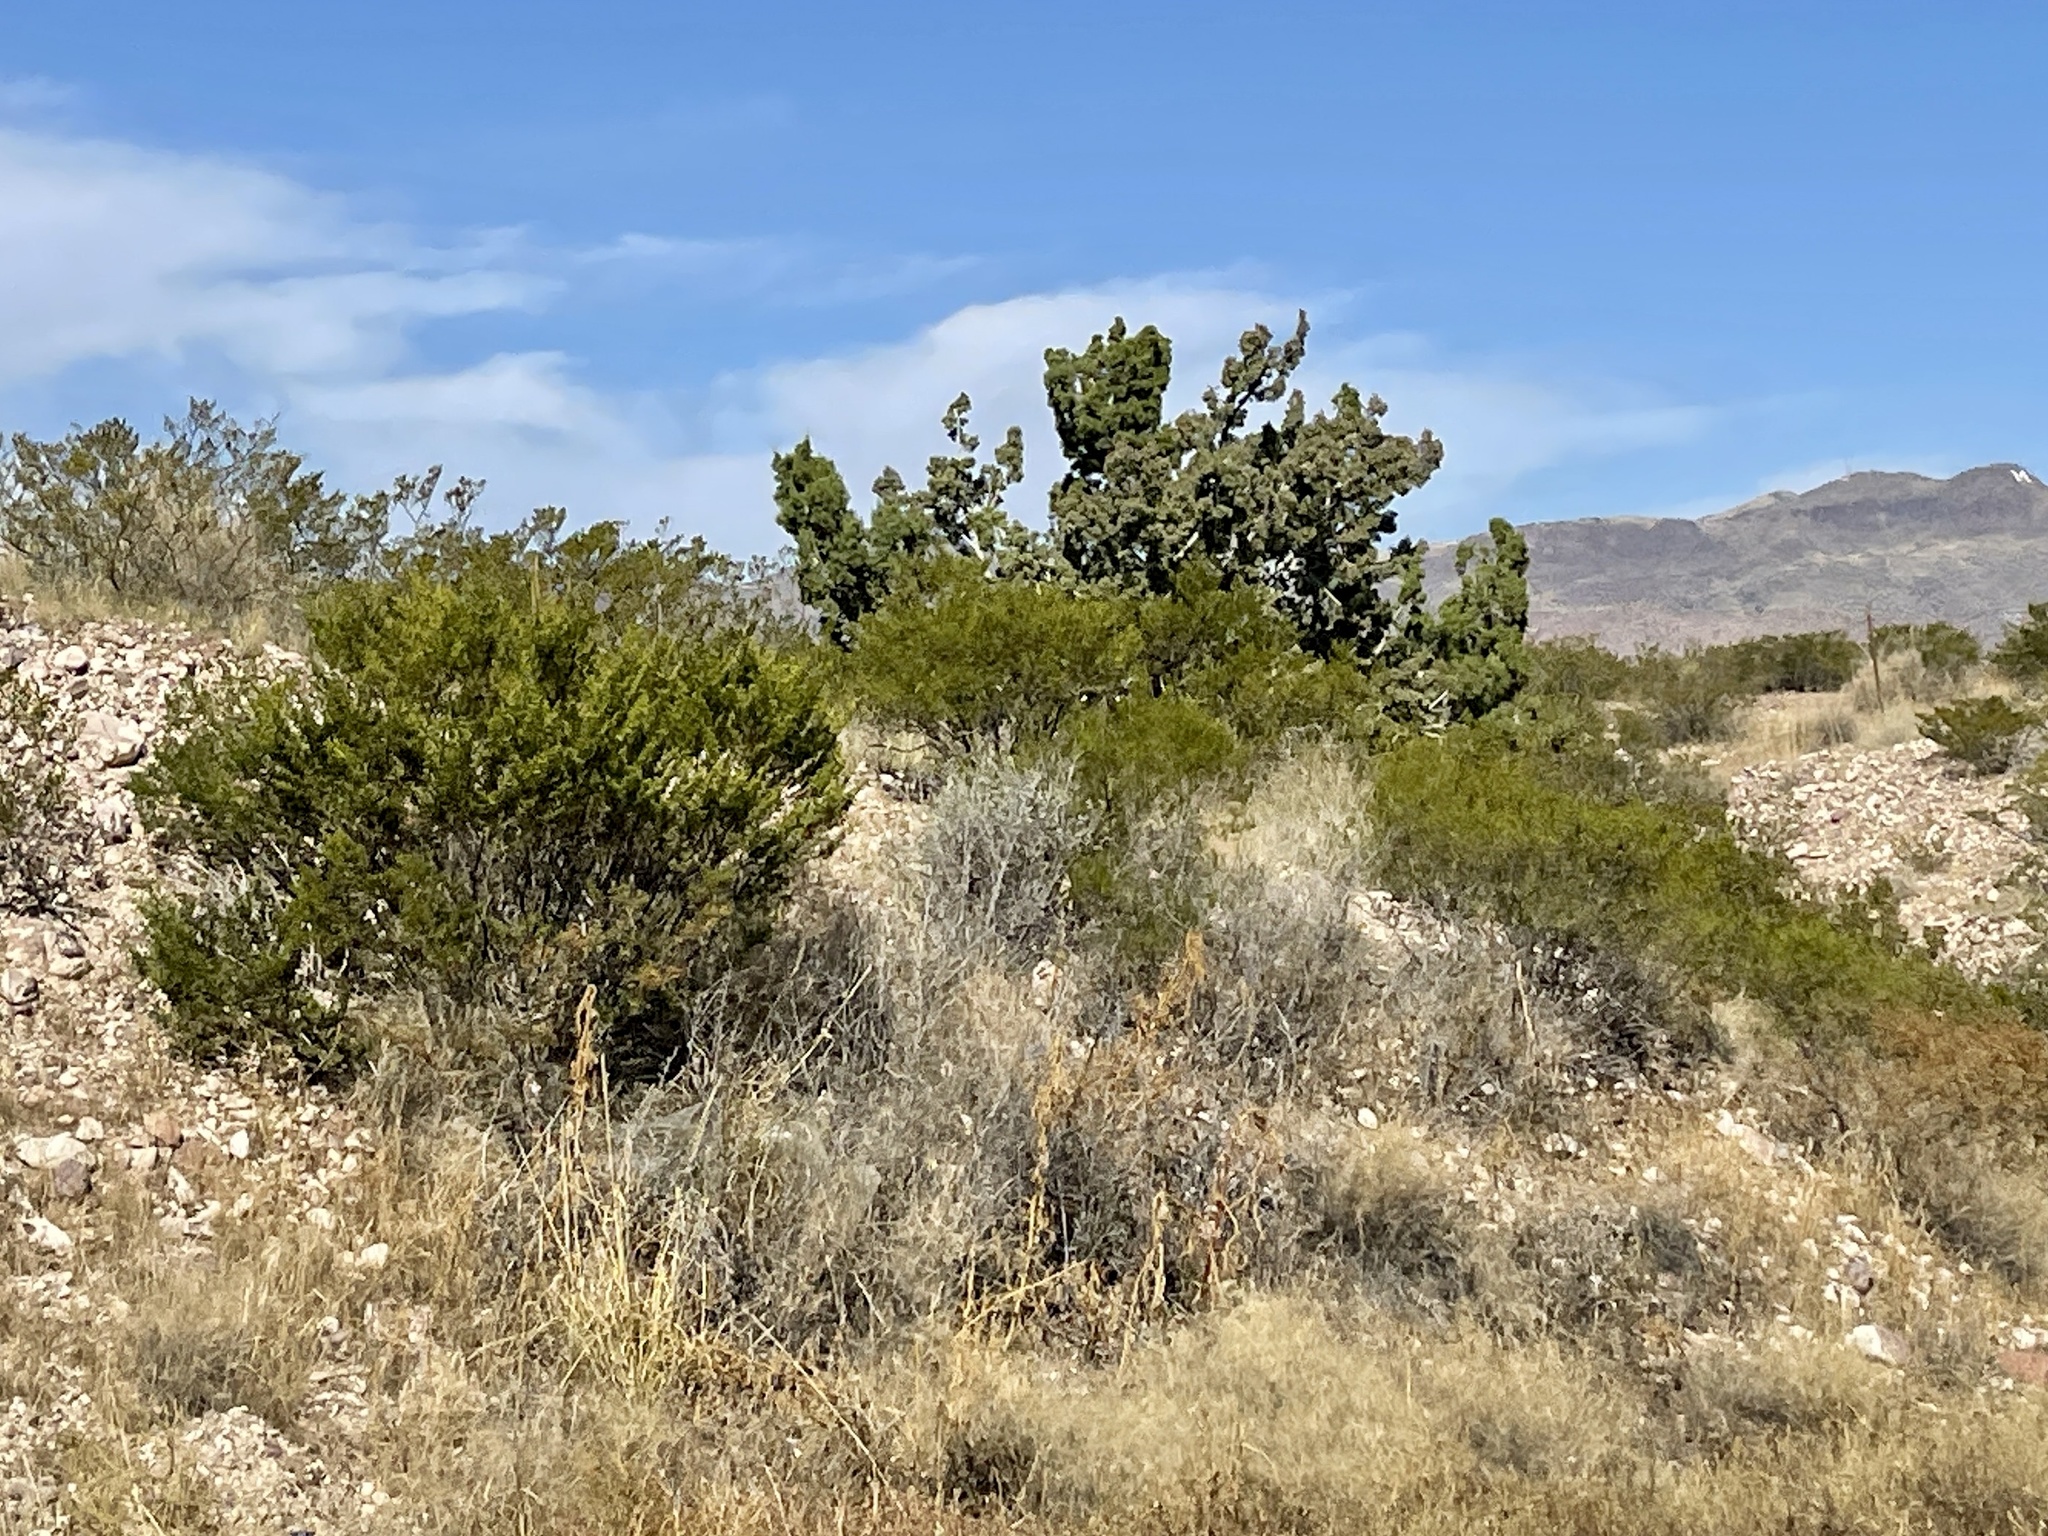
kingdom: Plantae
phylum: Tracheophyta
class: Magnoliopsida
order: Zygophyllales
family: Zygophyllaceae
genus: Larrea
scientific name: Larrea tridentata
